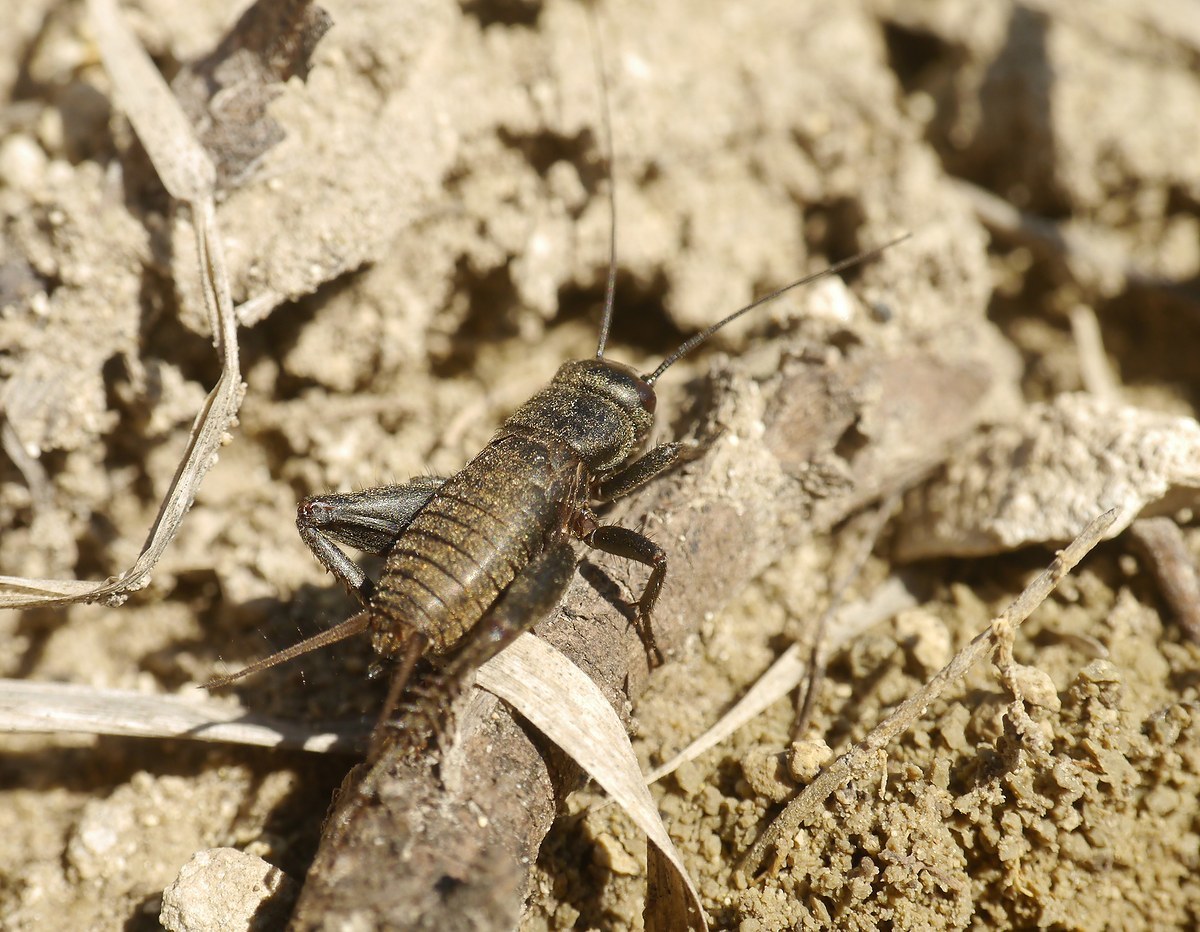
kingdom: Animalia
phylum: Arthropoda
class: Insecta
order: Orthoptera
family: Gryllidae
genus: Melanogryllus
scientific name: Melanogryllus desertus
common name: Desert cricket
